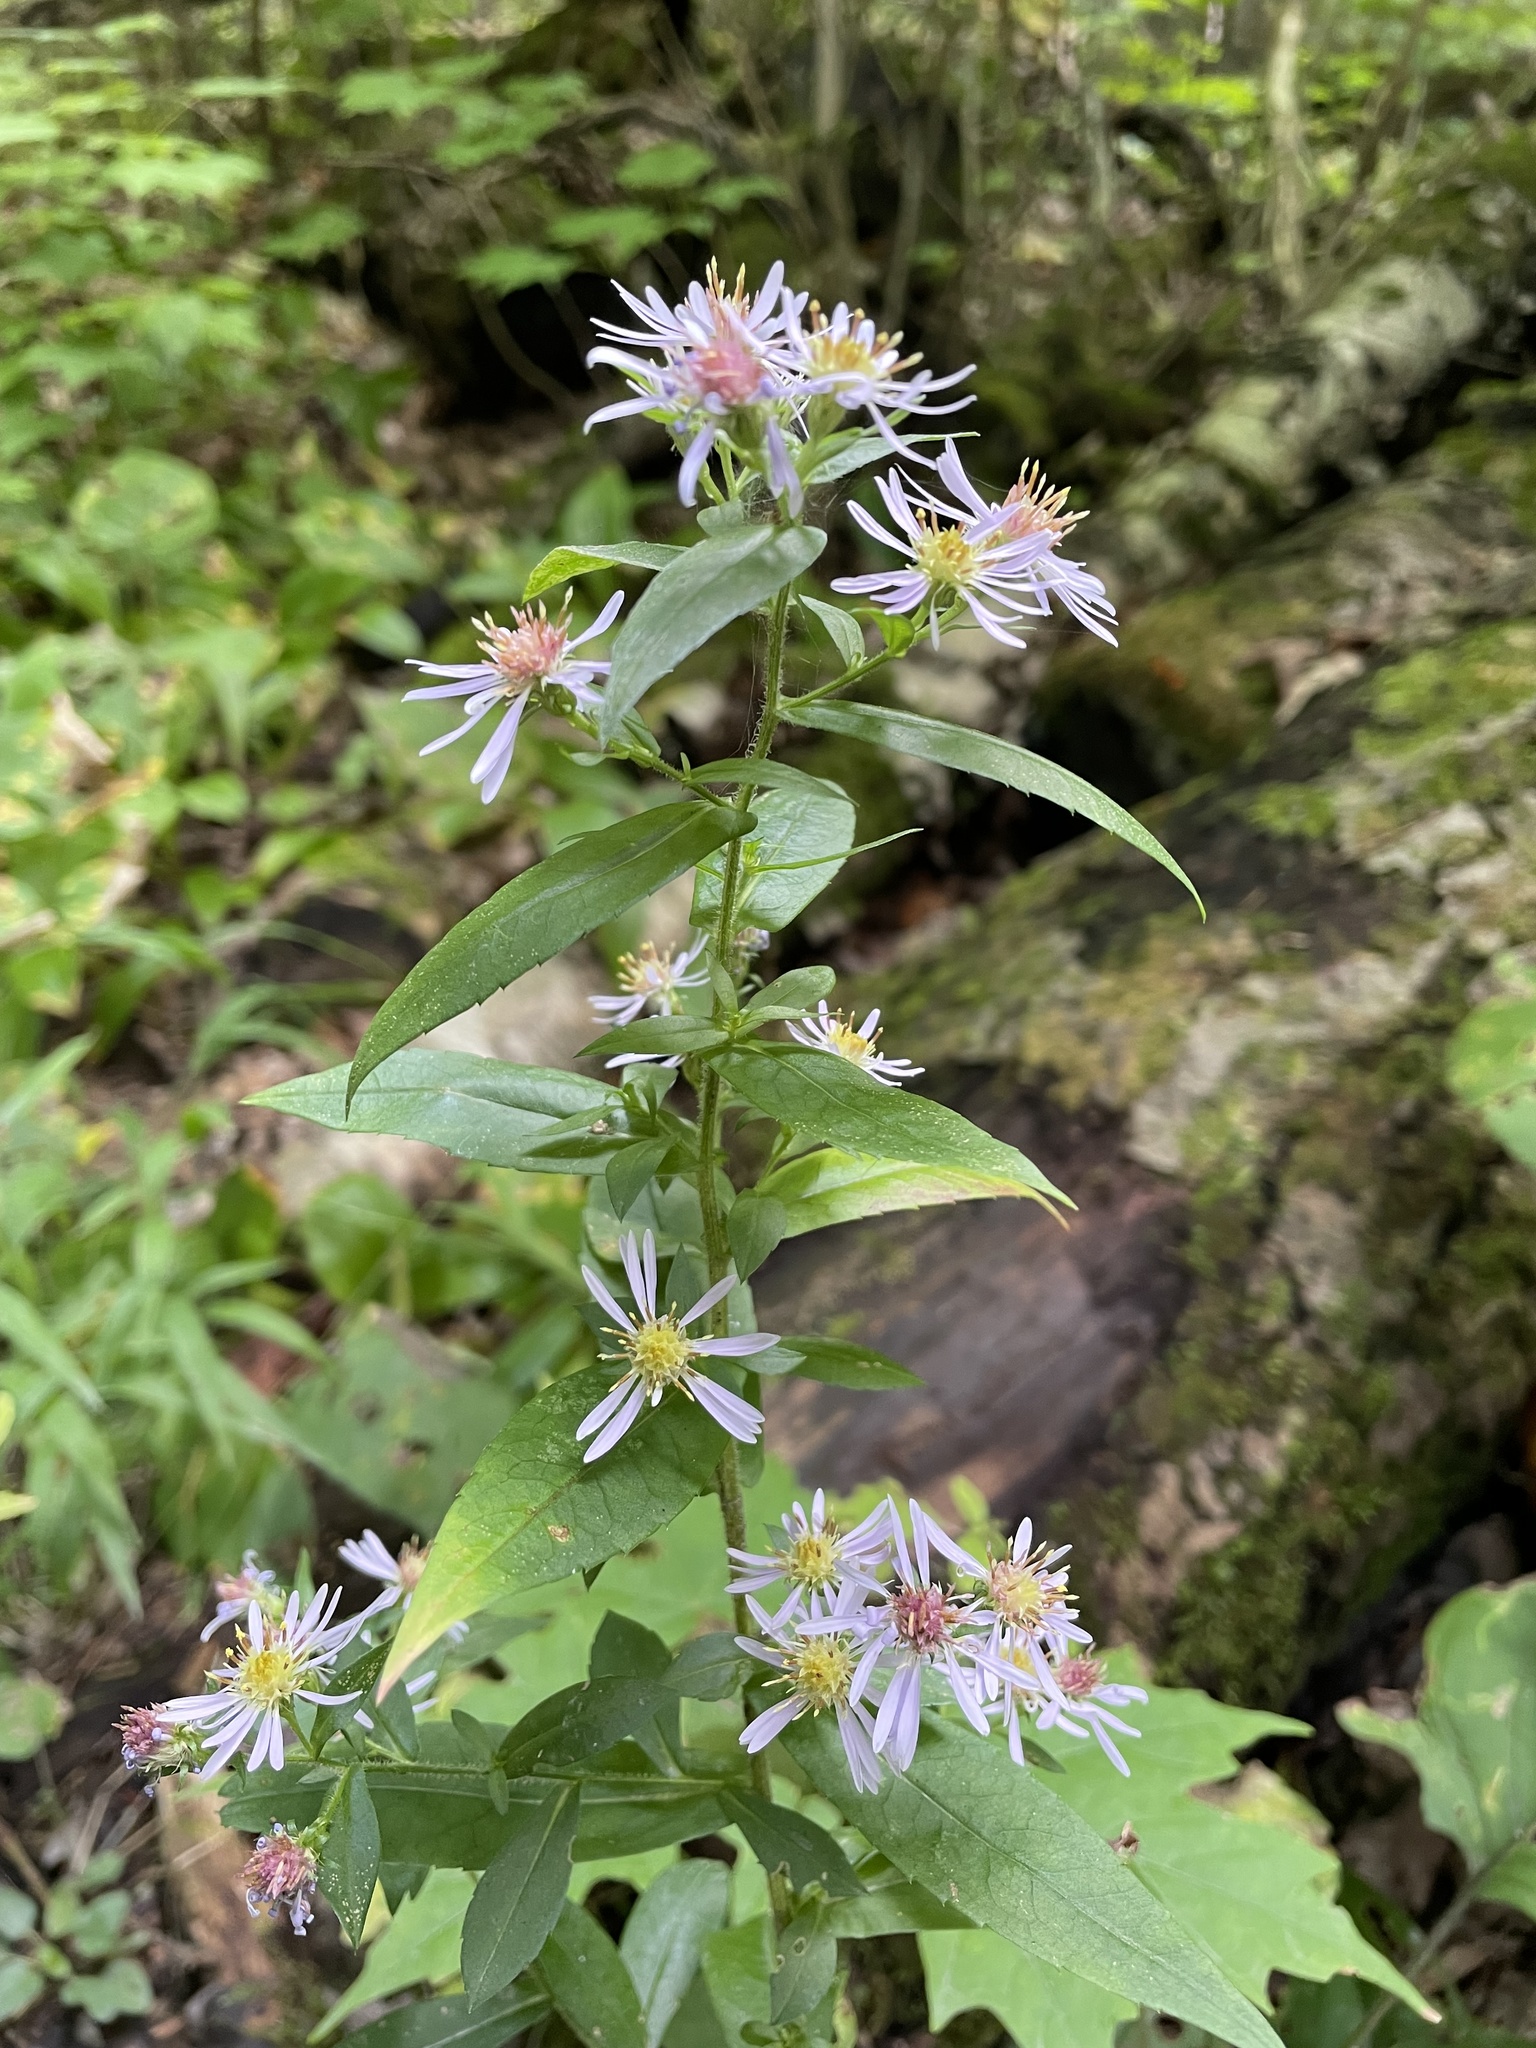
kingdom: Plantae
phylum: Tracheophyta
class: Magnoliopsida
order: Asterales
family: Asteraceae
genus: Symphyotrichum
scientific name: Symphyotrichum puniceum
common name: Bog aster
